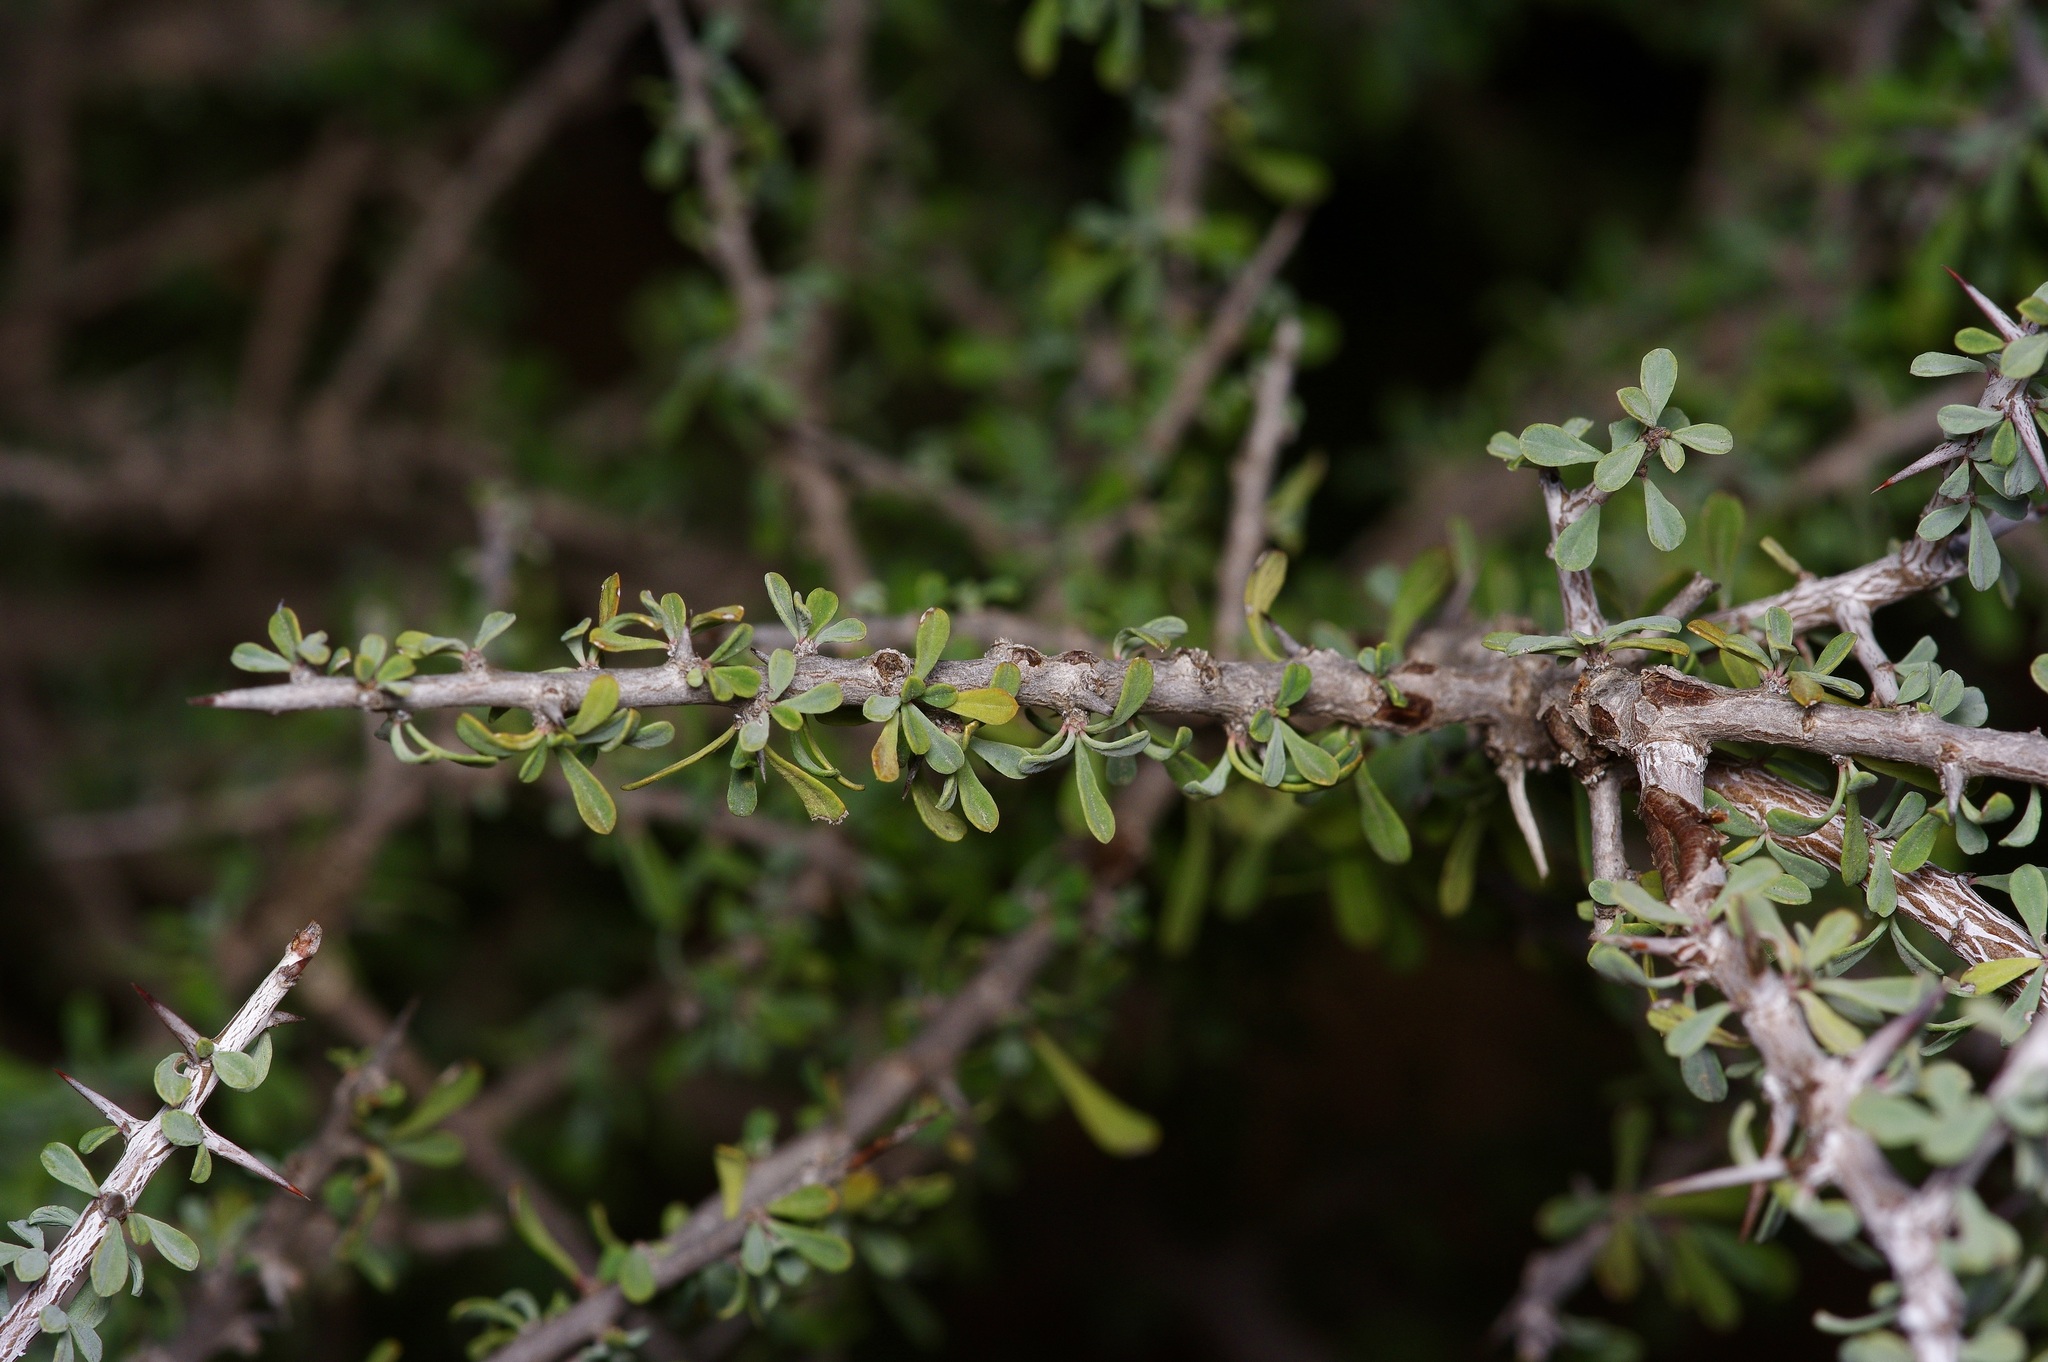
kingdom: Plantae
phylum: Tracheophyta
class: Magnoliopsida
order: Rosales
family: Rhamnaceae
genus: Condalia
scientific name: Condalia spathulata
